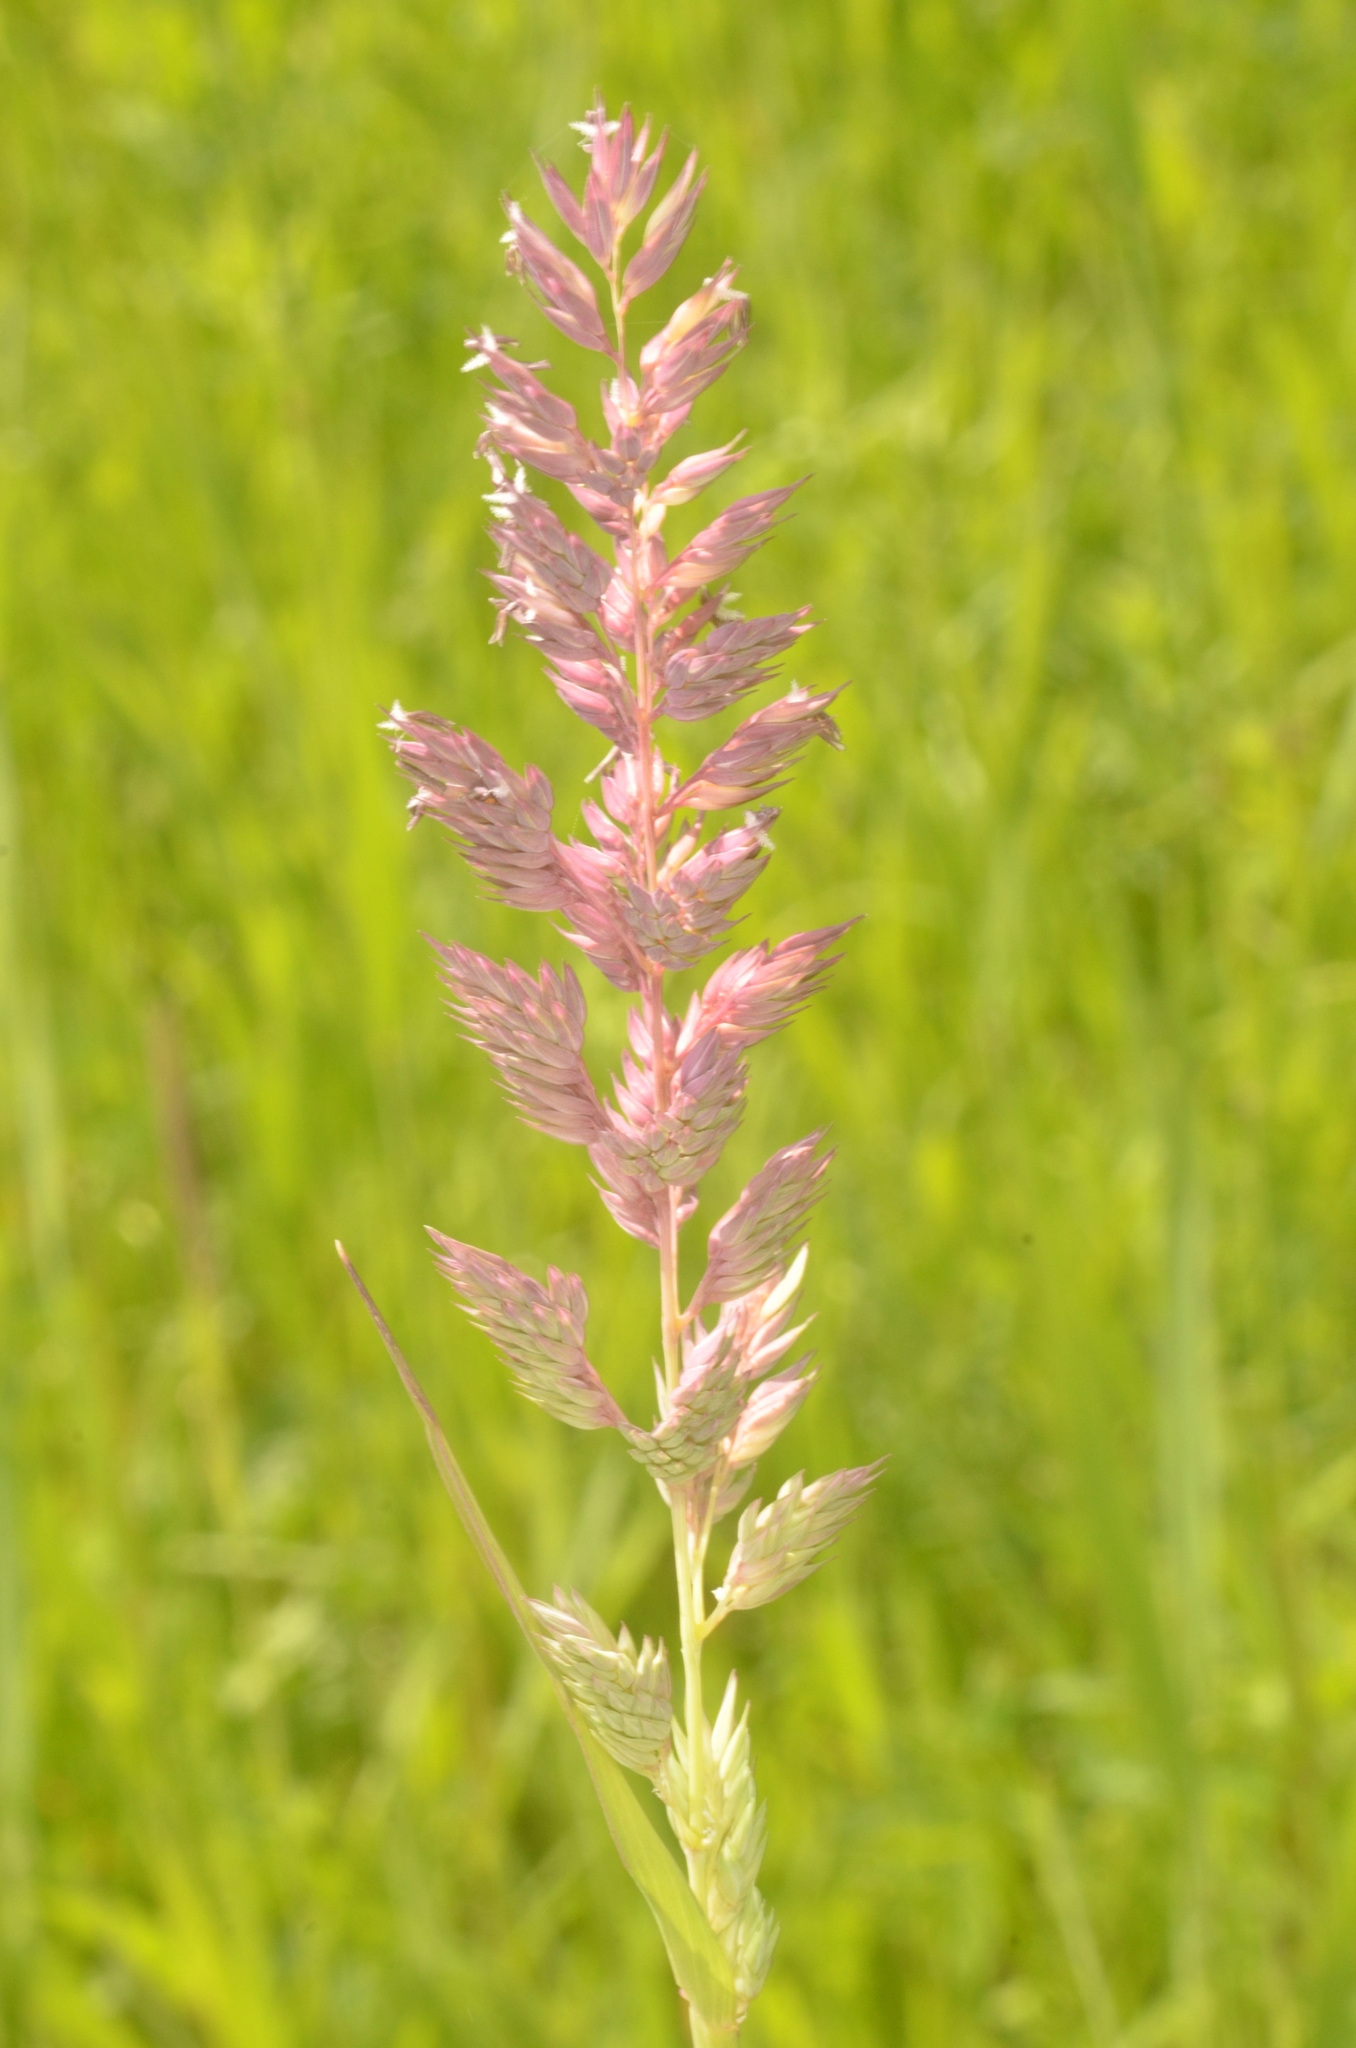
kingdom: Plantae
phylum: Tracheophyta
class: Liliopsida
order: Poales
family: Poaceae
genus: Phalaris
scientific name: Phalaris arundinacea
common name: Reed canary-grass
